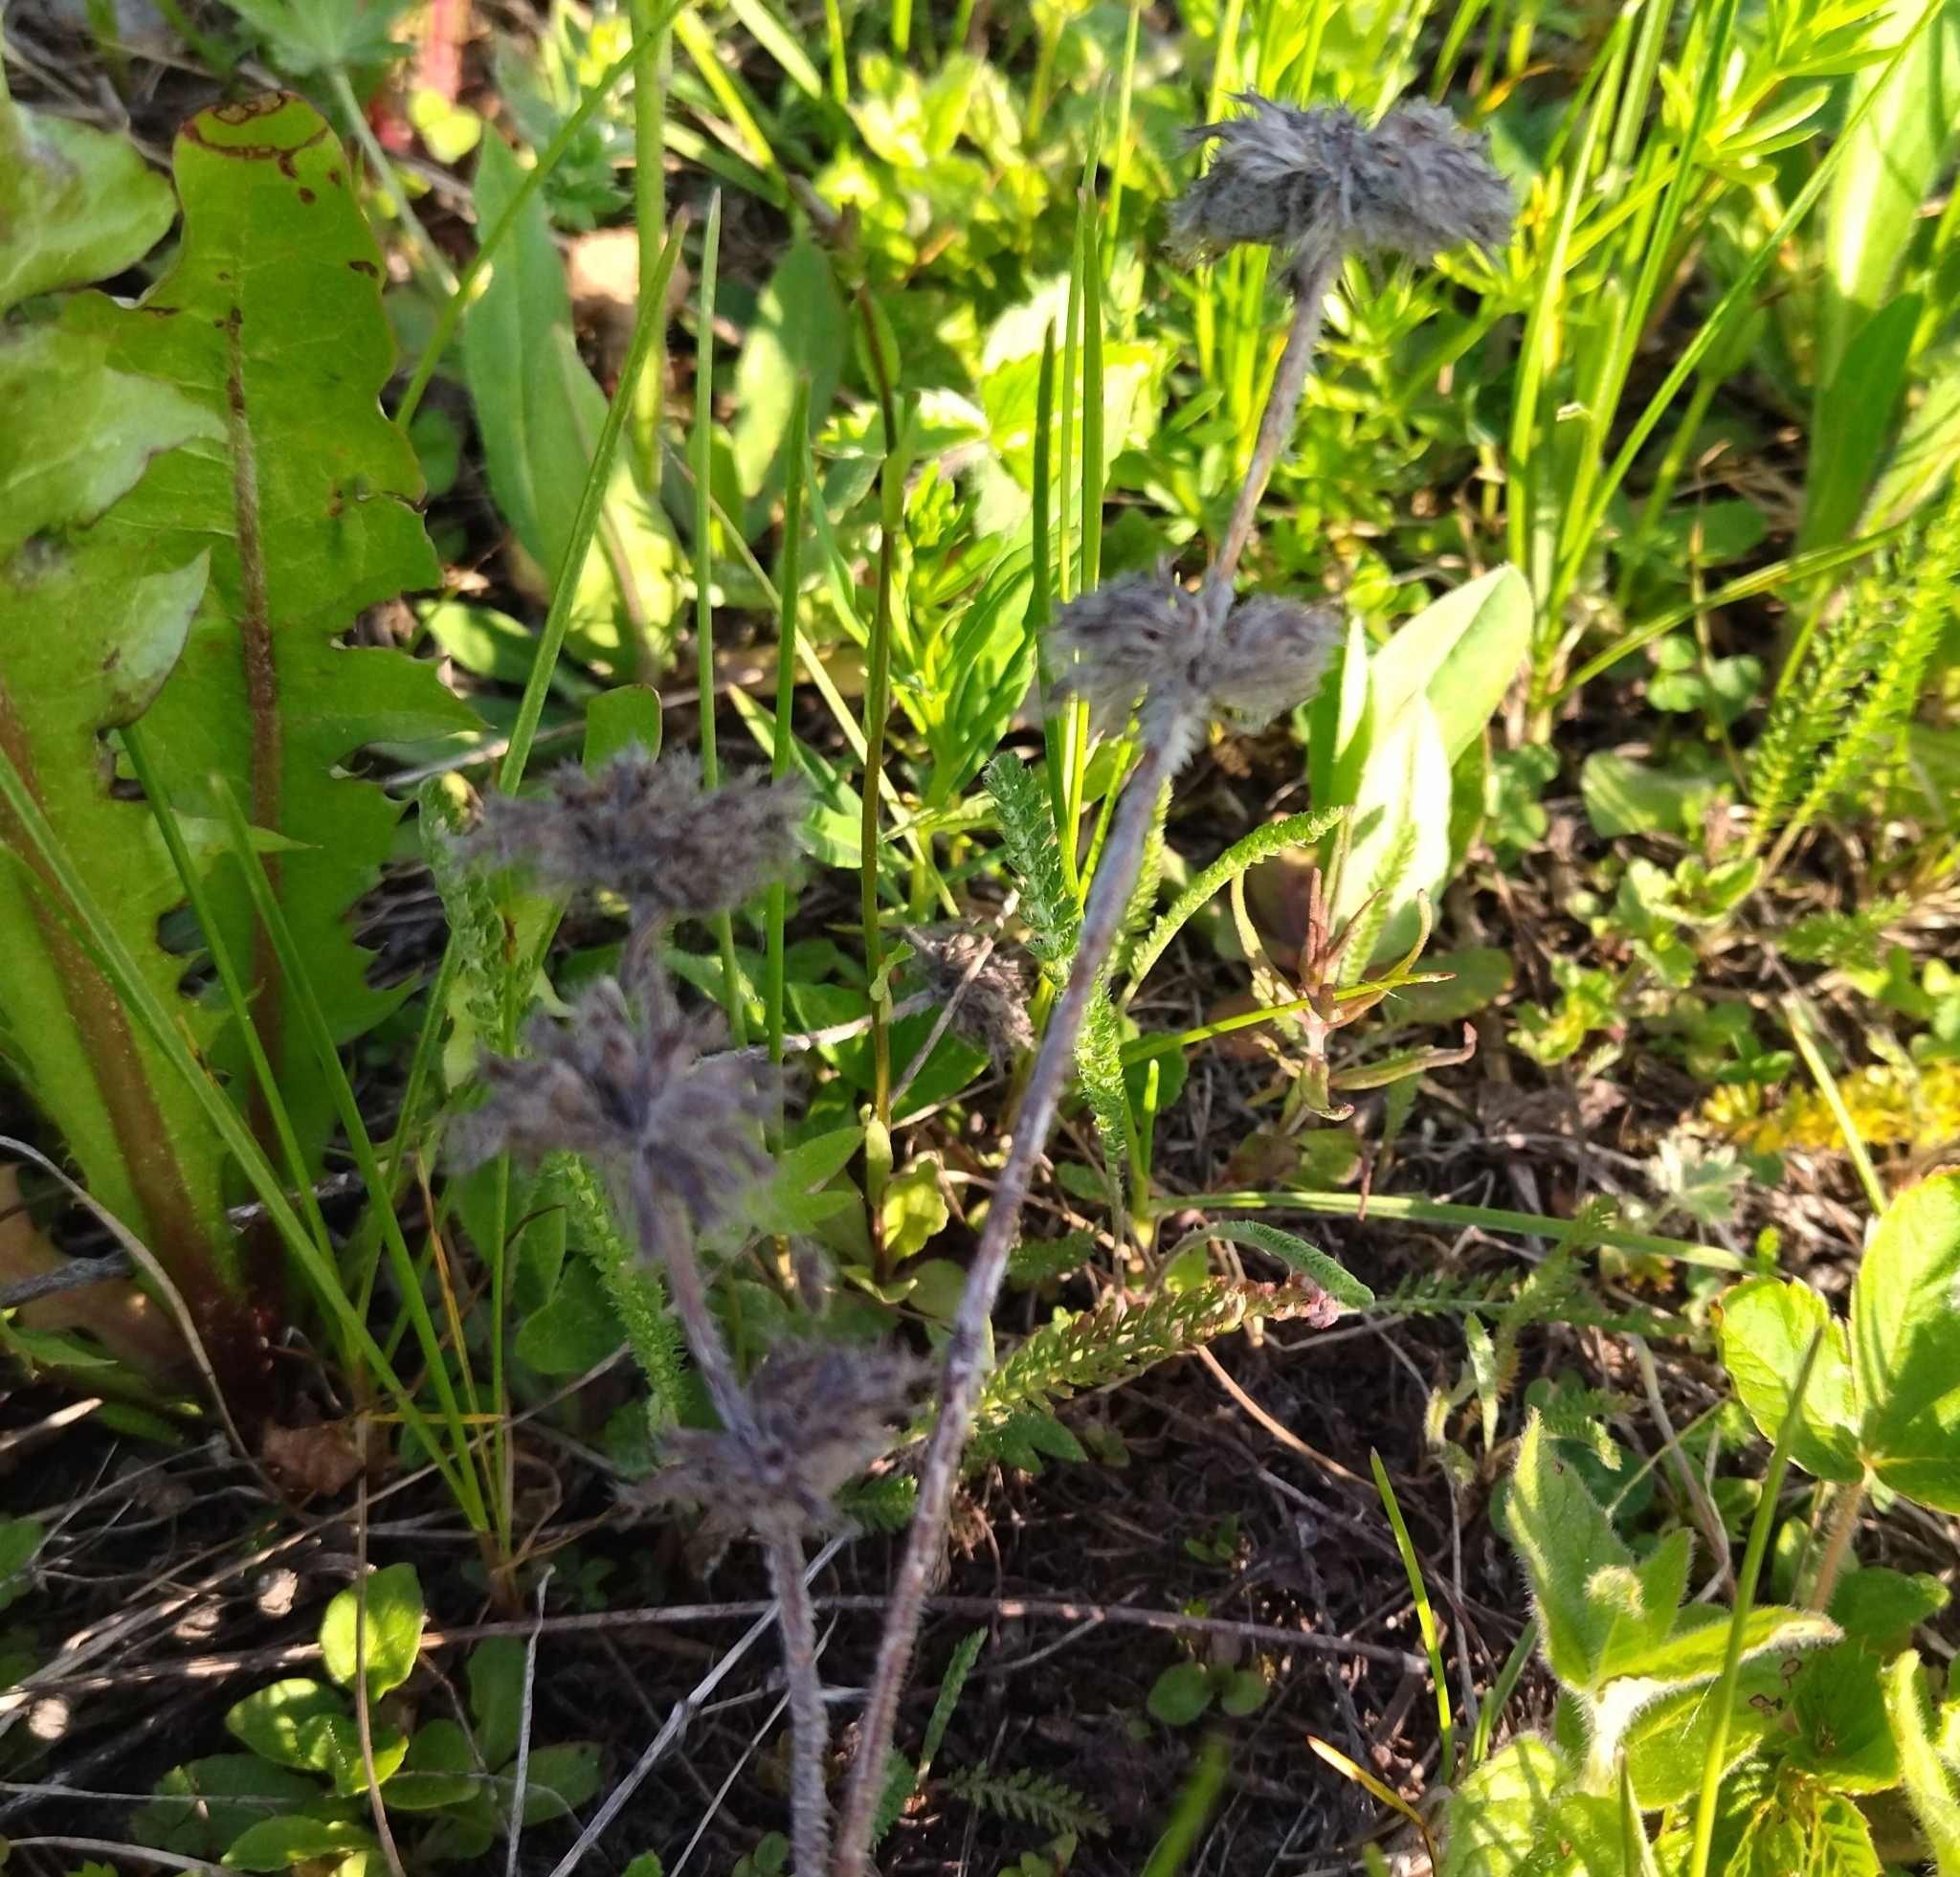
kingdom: Plantae
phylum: Tracheophyta
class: Magnoliopsida
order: Lamiales
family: Lamiaceae
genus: Clinopodium
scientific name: Clinopodium vulgare
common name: Wild basil
